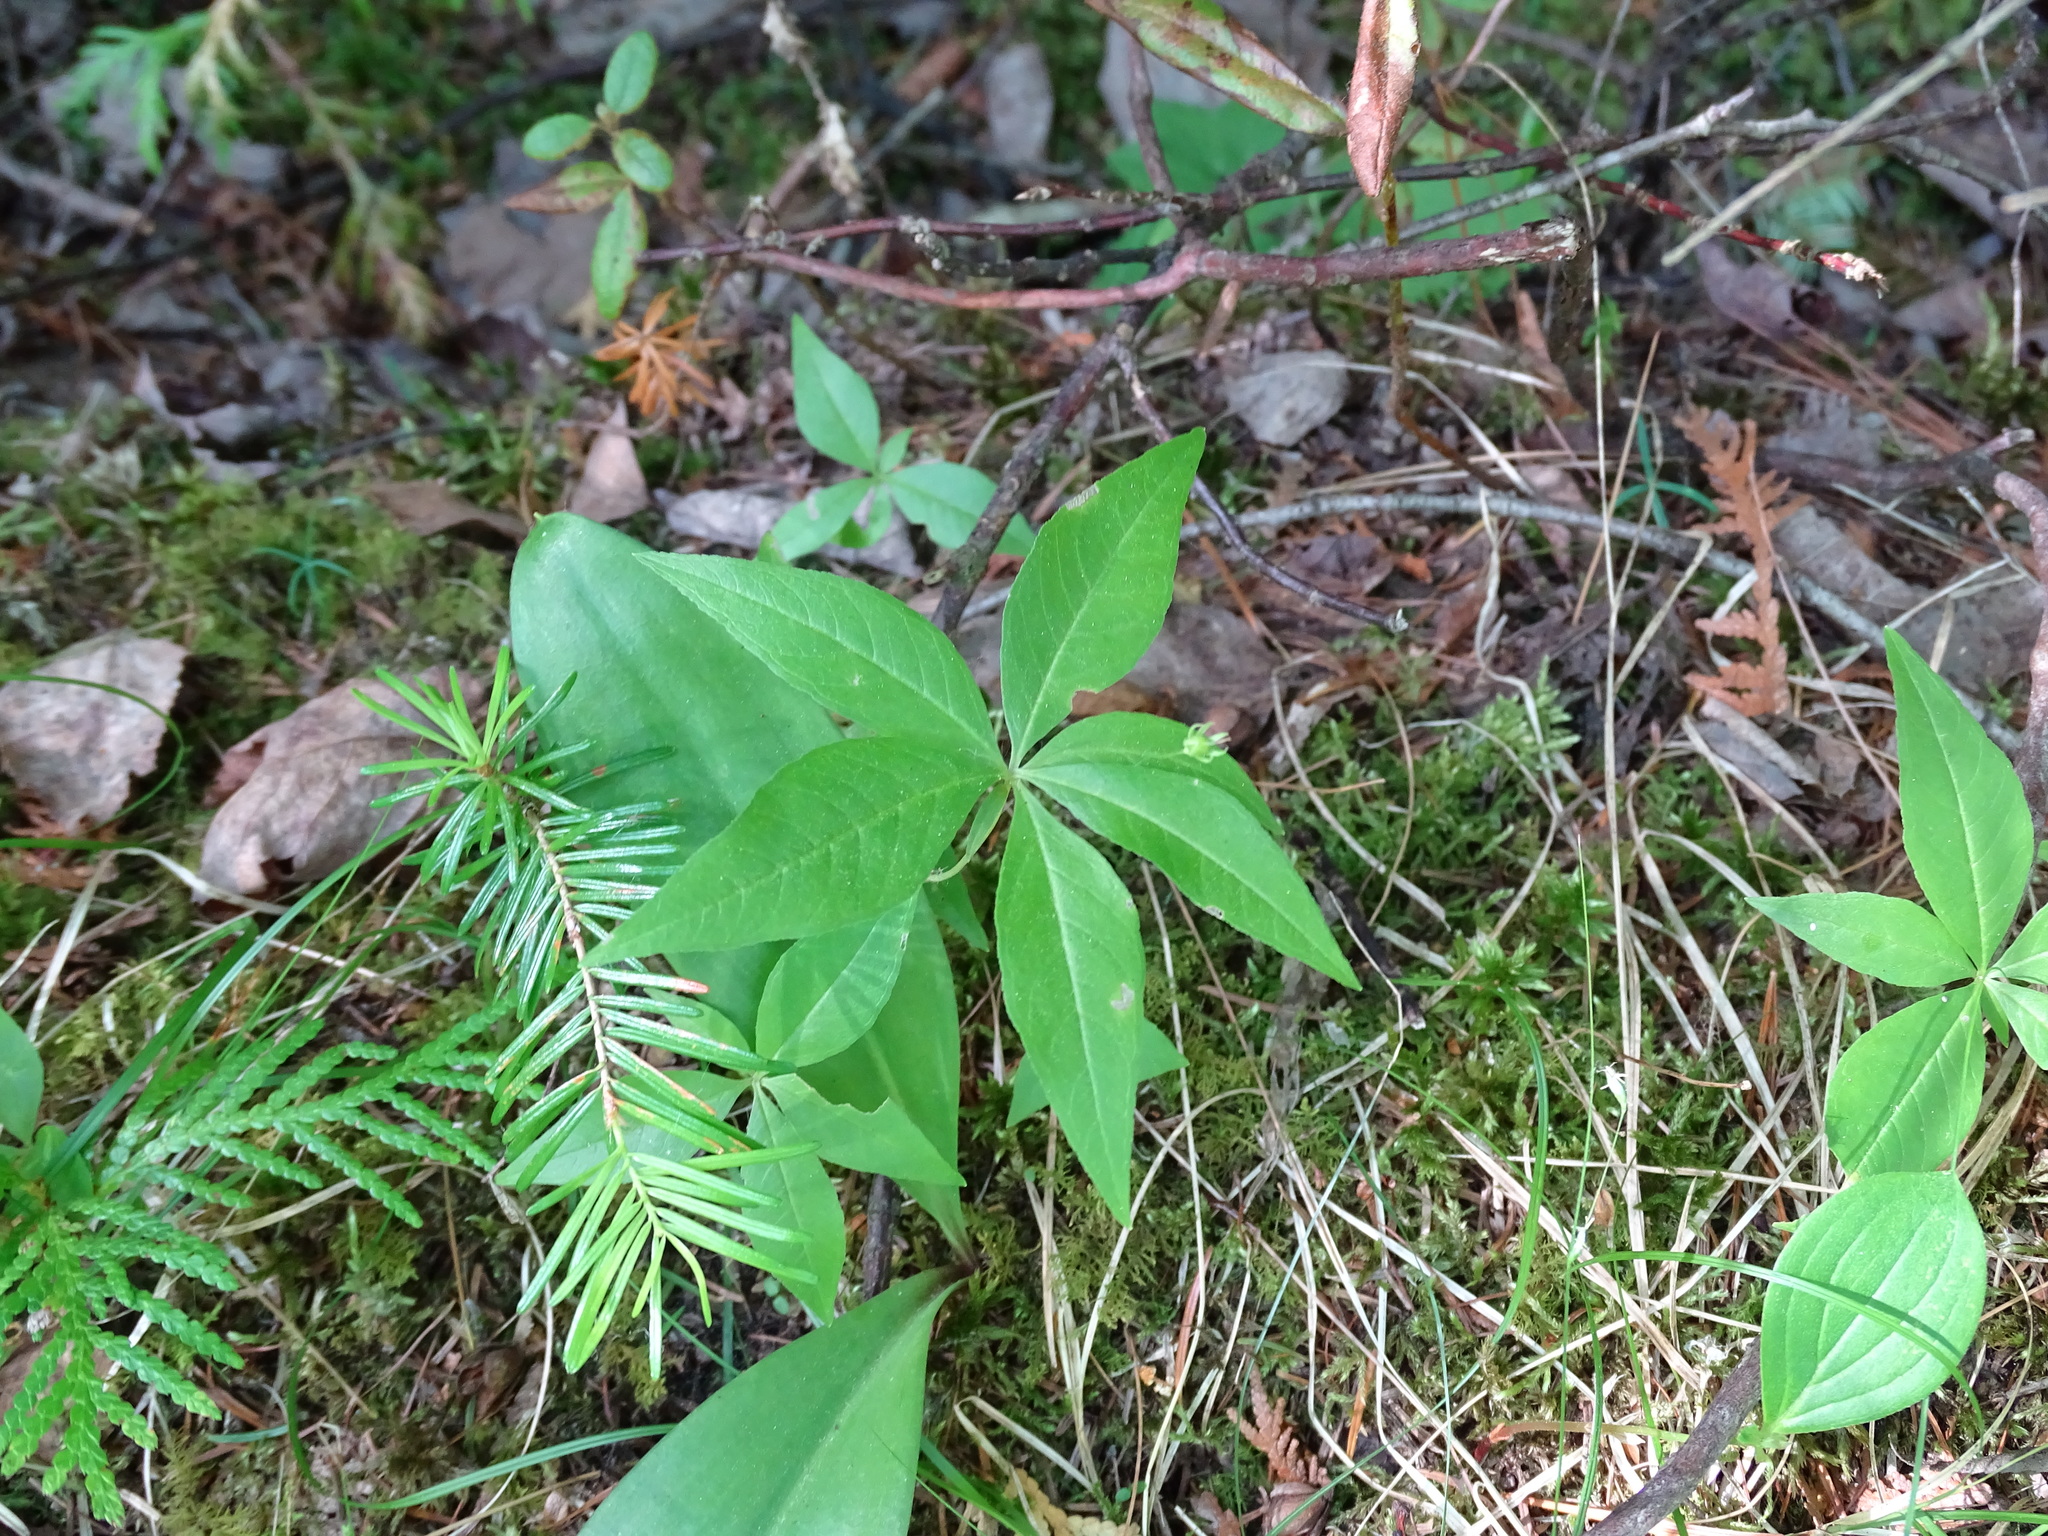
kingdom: Plantae
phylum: Tracheophyta
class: Magnoliopsida
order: Ericales
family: Primulaceae
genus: Lysimachia
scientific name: Lysimachia borealis
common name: American starflower
